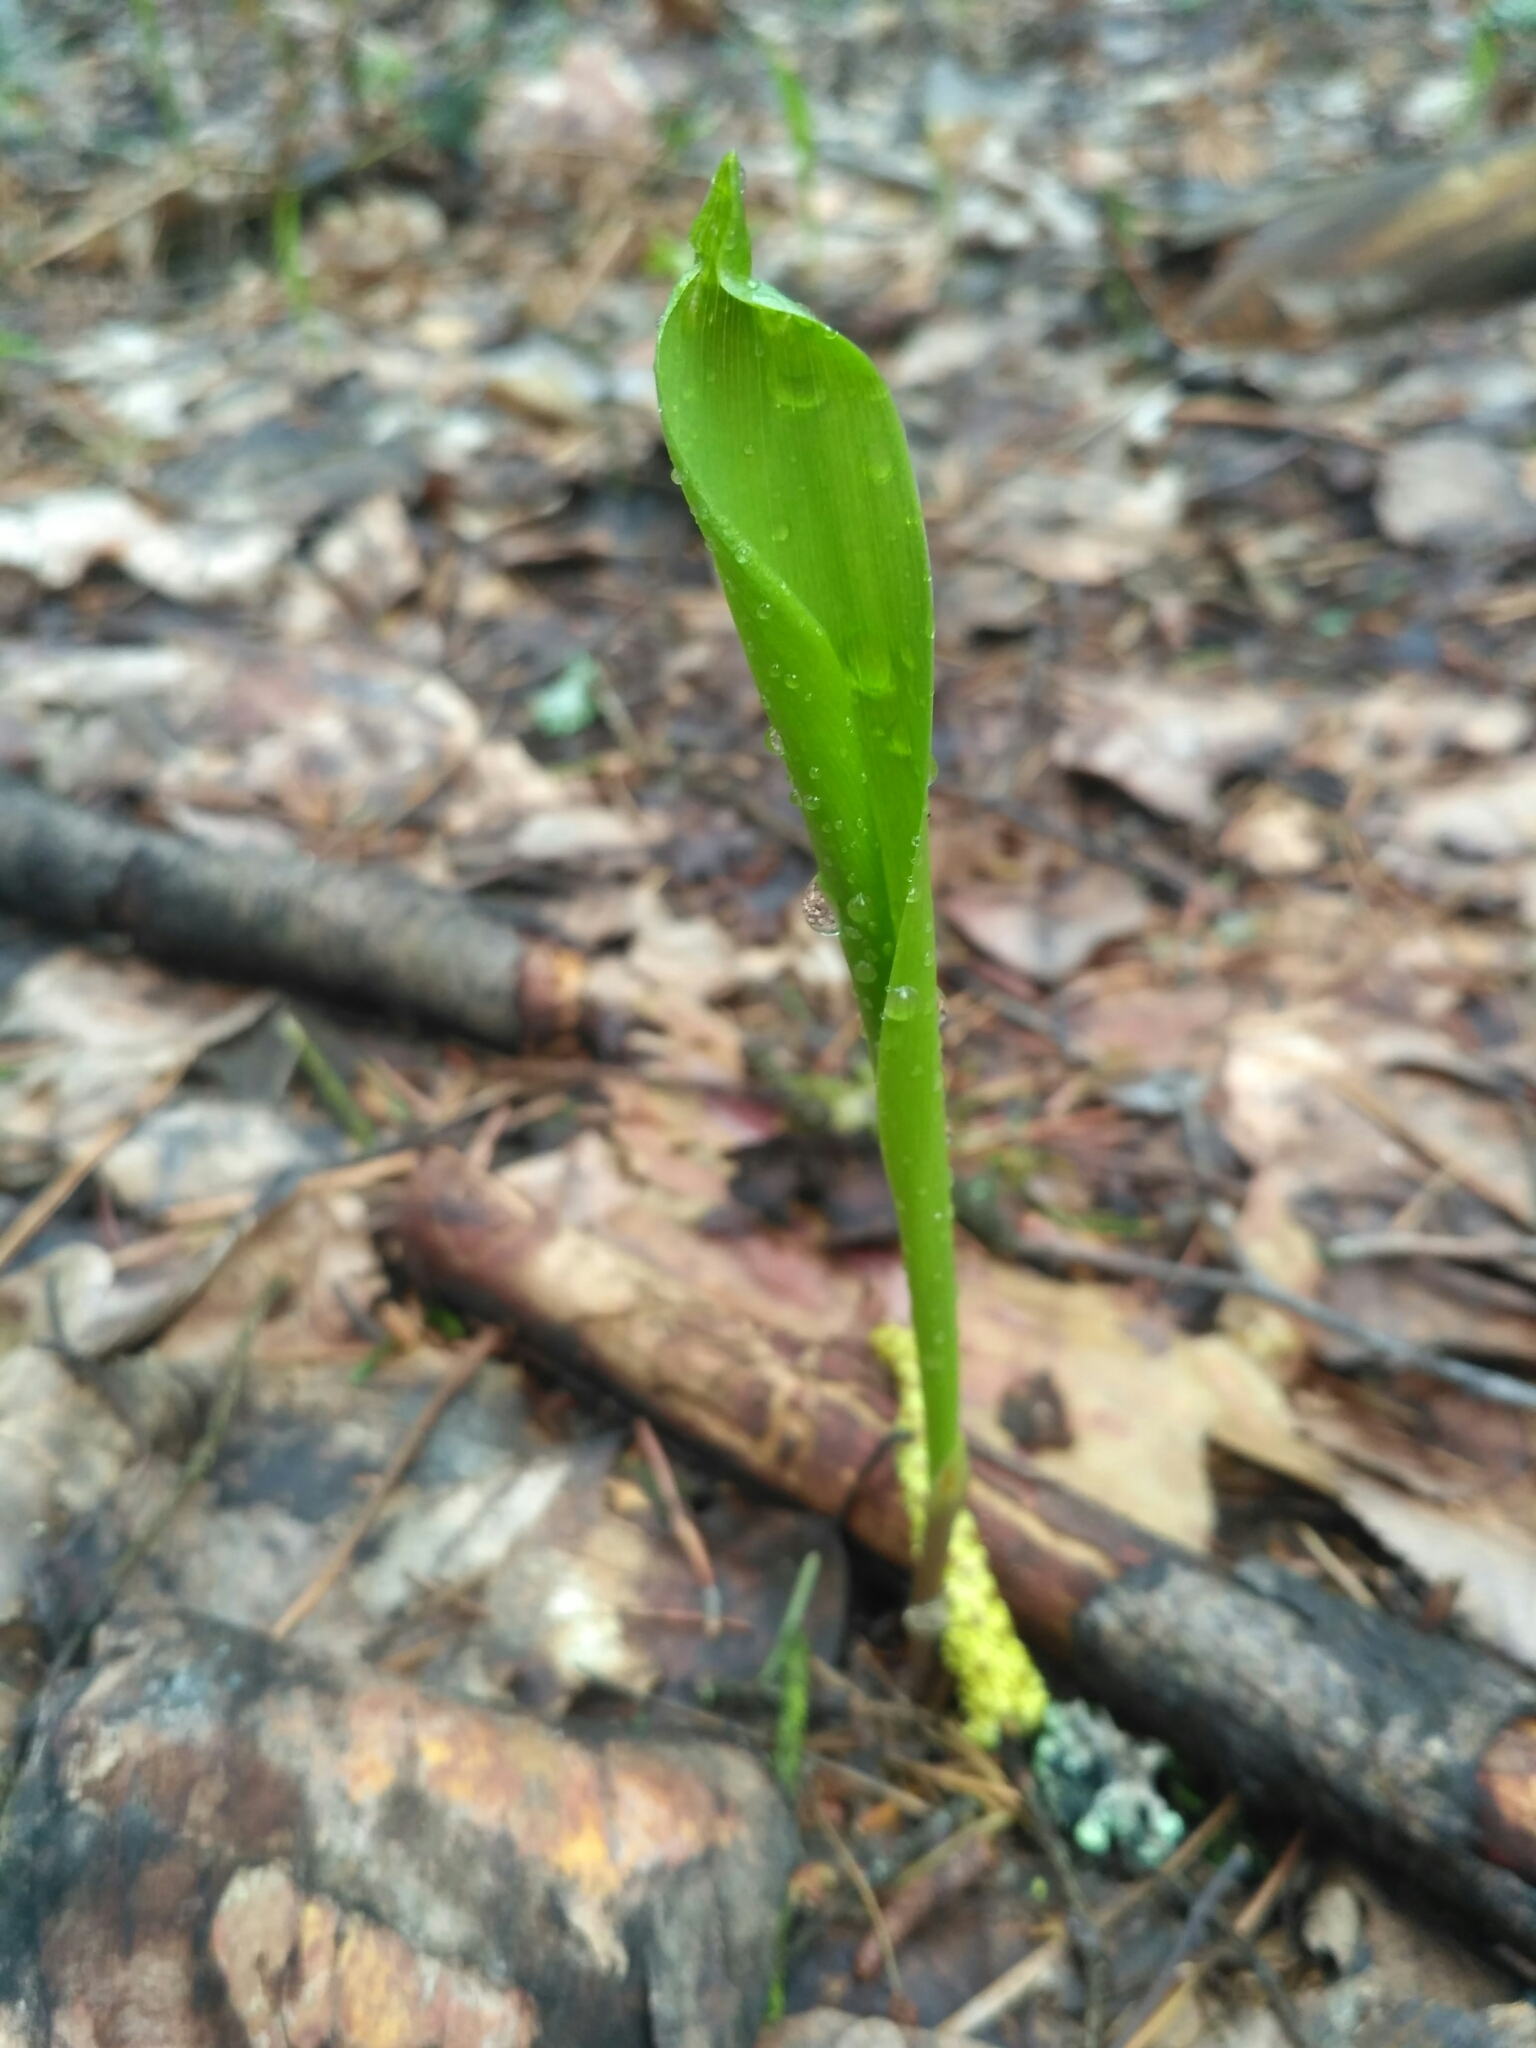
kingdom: Plantae
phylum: Tracheophyta
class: Liliopsida
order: Asparagales
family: Asparagaceae
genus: Convallaria
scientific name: Convallaria majalis
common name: Lily-of-the-valley
